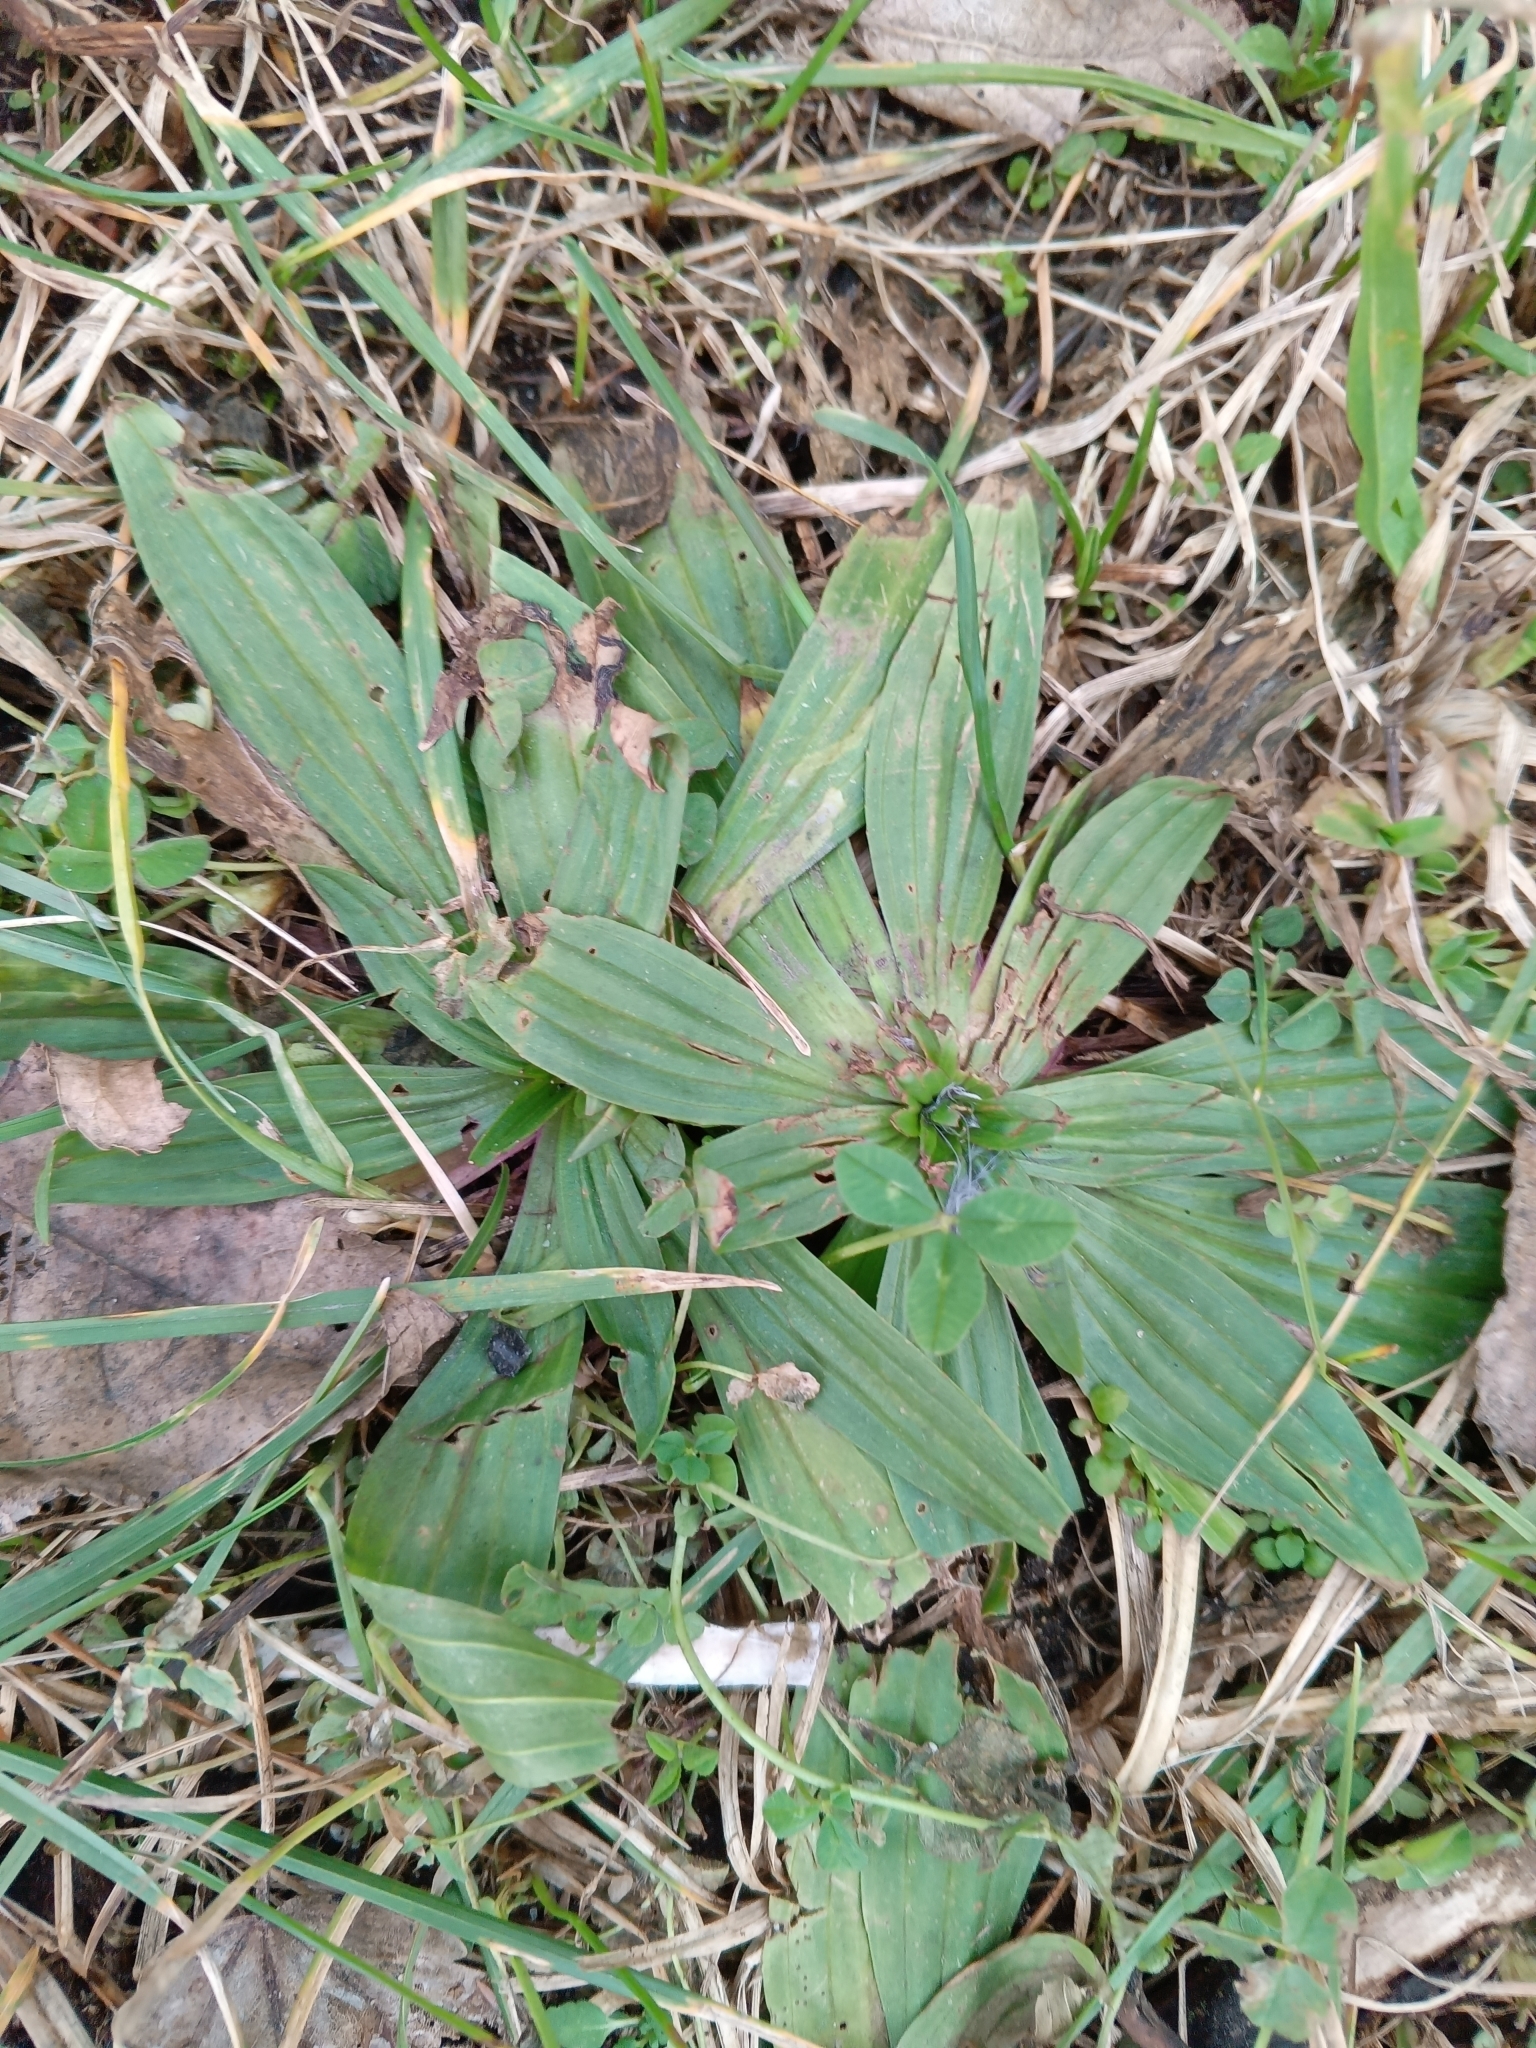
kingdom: Plantae
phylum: Tracheophyta
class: Magnoliopsida
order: Lamiales
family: Plantaginaceae
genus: Plantago
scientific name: Plantago lanceolata
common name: Ribwort plantain
